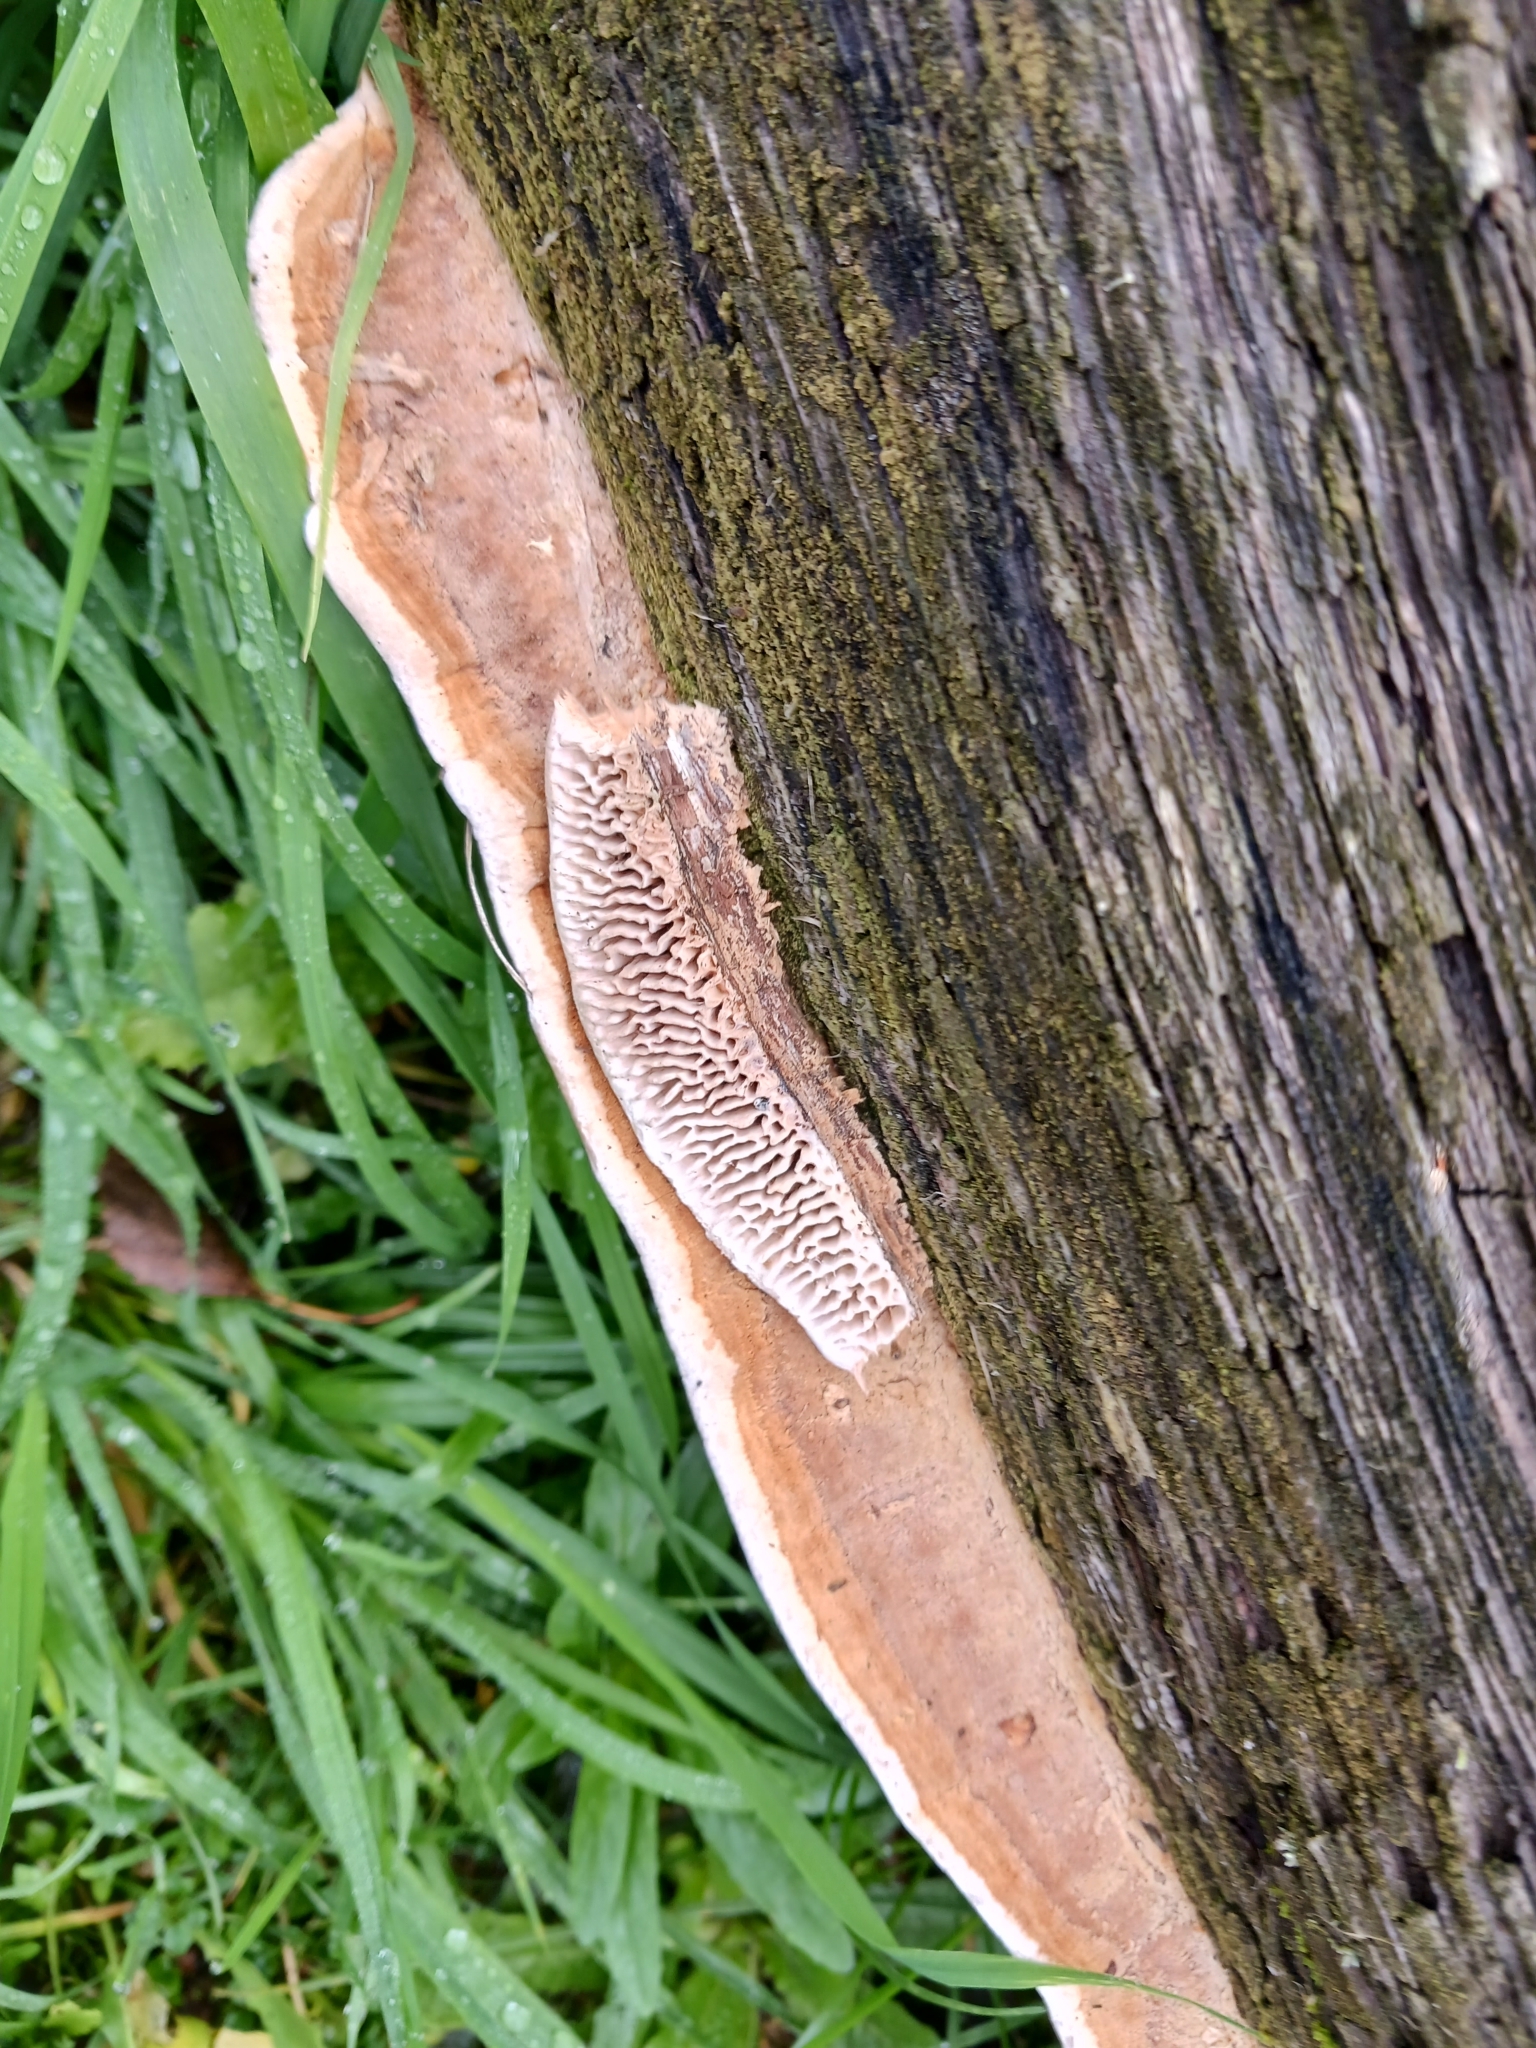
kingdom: Fungi
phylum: Basidiomycota
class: Agaricomycetes
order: Polyporales
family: Fomitopsidaceae
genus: Fomitopsis
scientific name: Fomitopsis
